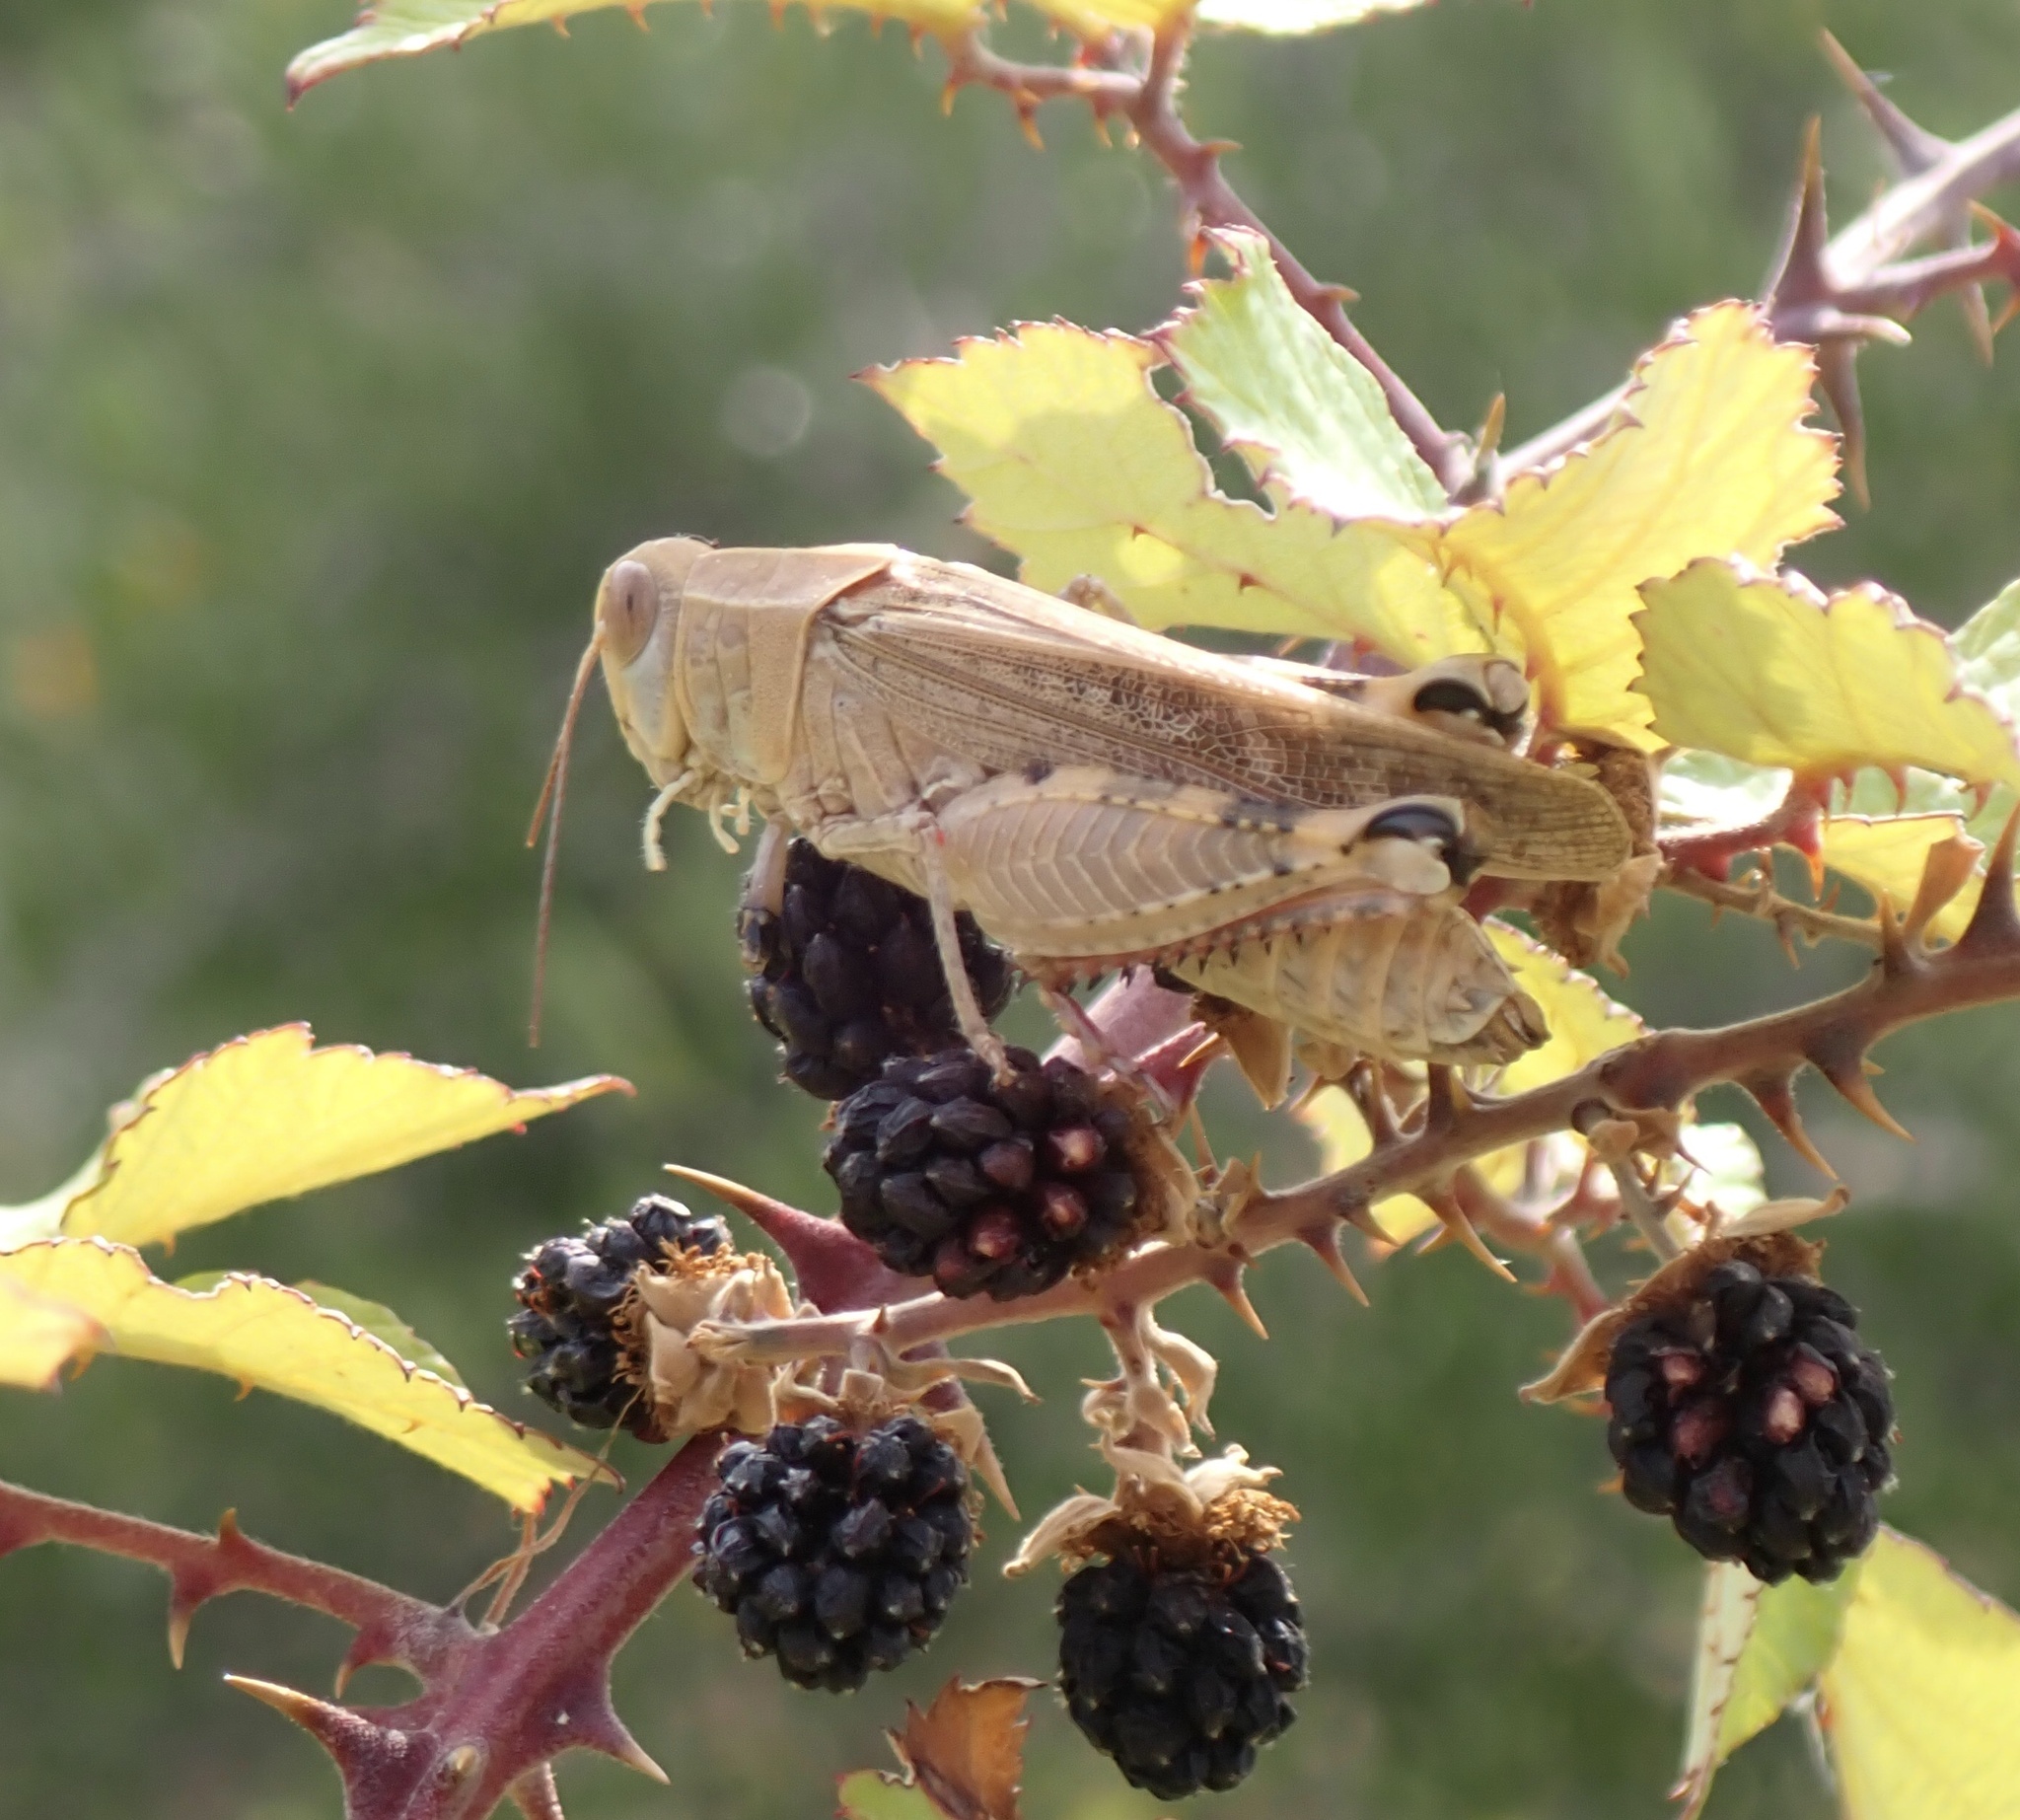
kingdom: Animalia
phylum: Arthropoda
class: Insecta
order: Orthoptera
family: Acrididae
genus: Calliptamus
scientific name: Calliptamus italicus
